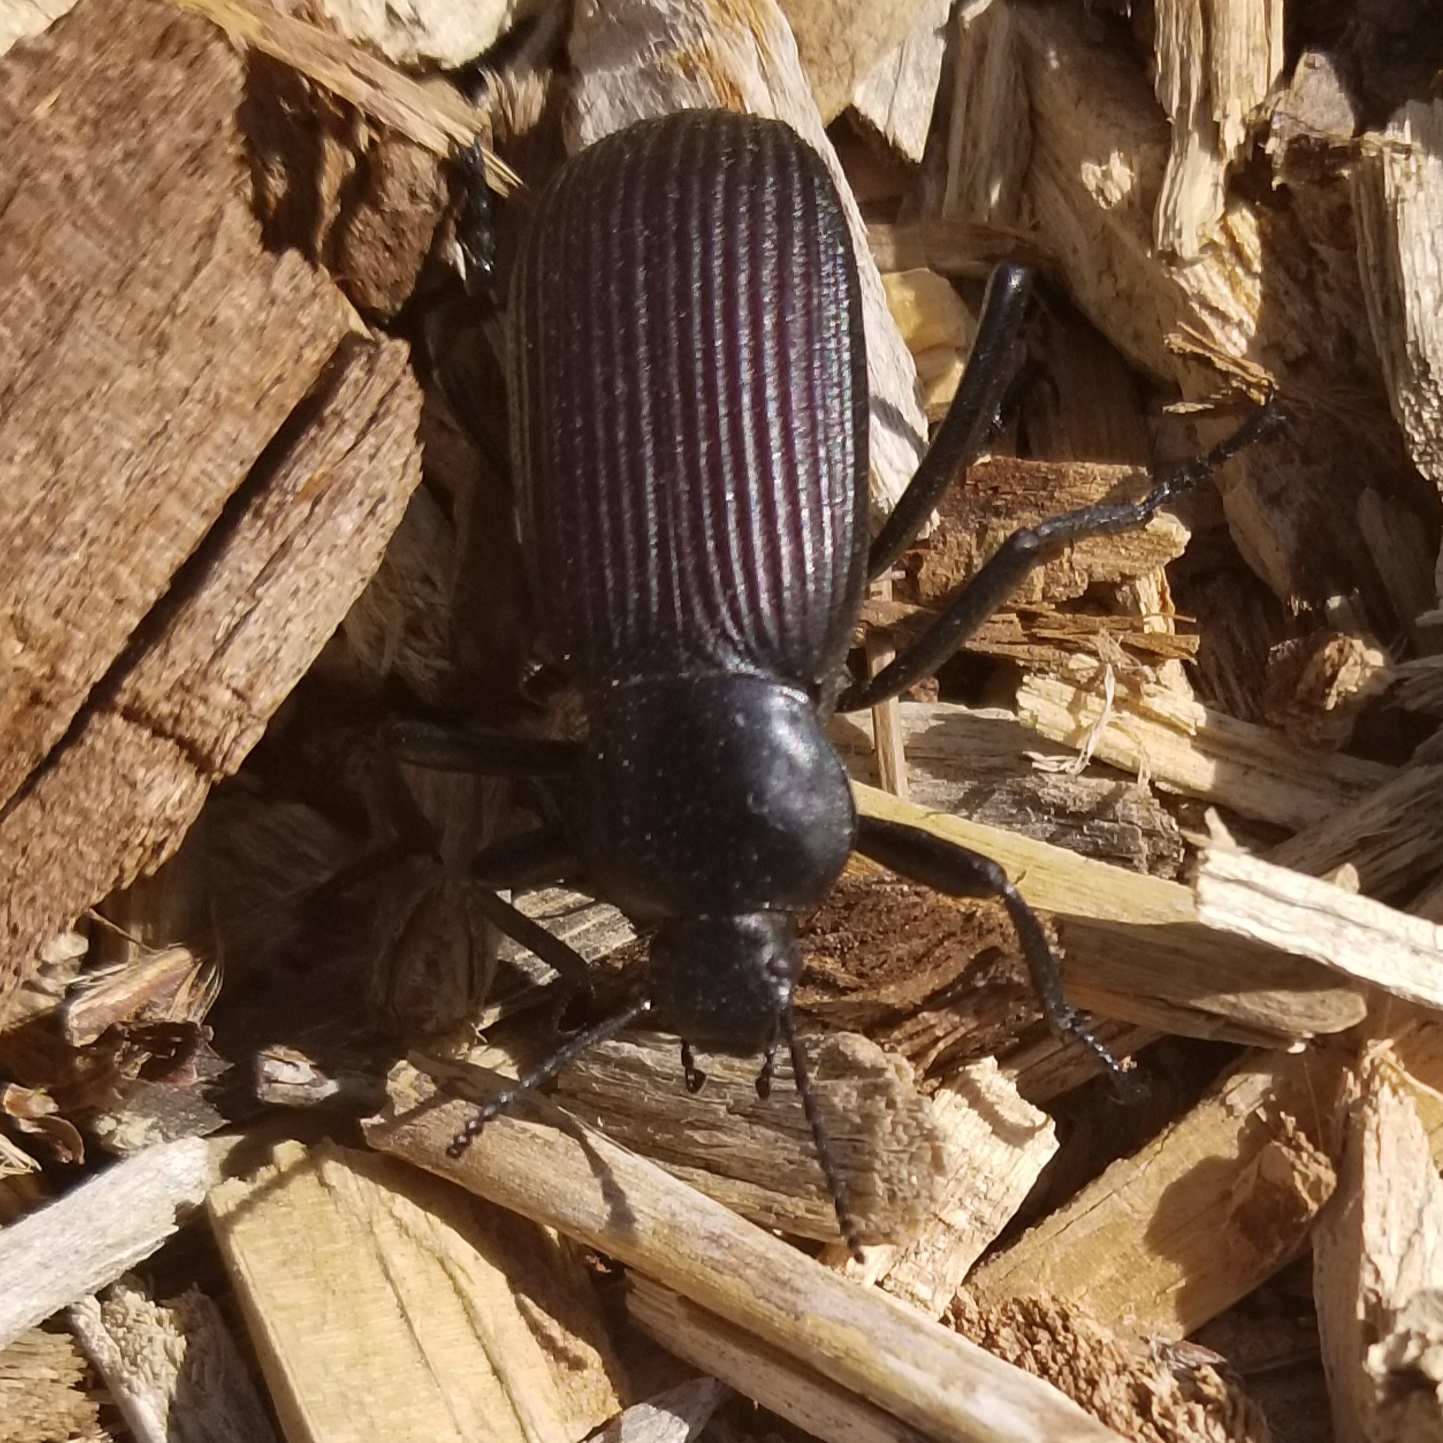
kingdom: Animalia
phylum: Arthropoda
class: Insecta
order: Coleoptera
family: Tenebrionidae
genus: Eleodes
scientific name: Eleodes obscura
